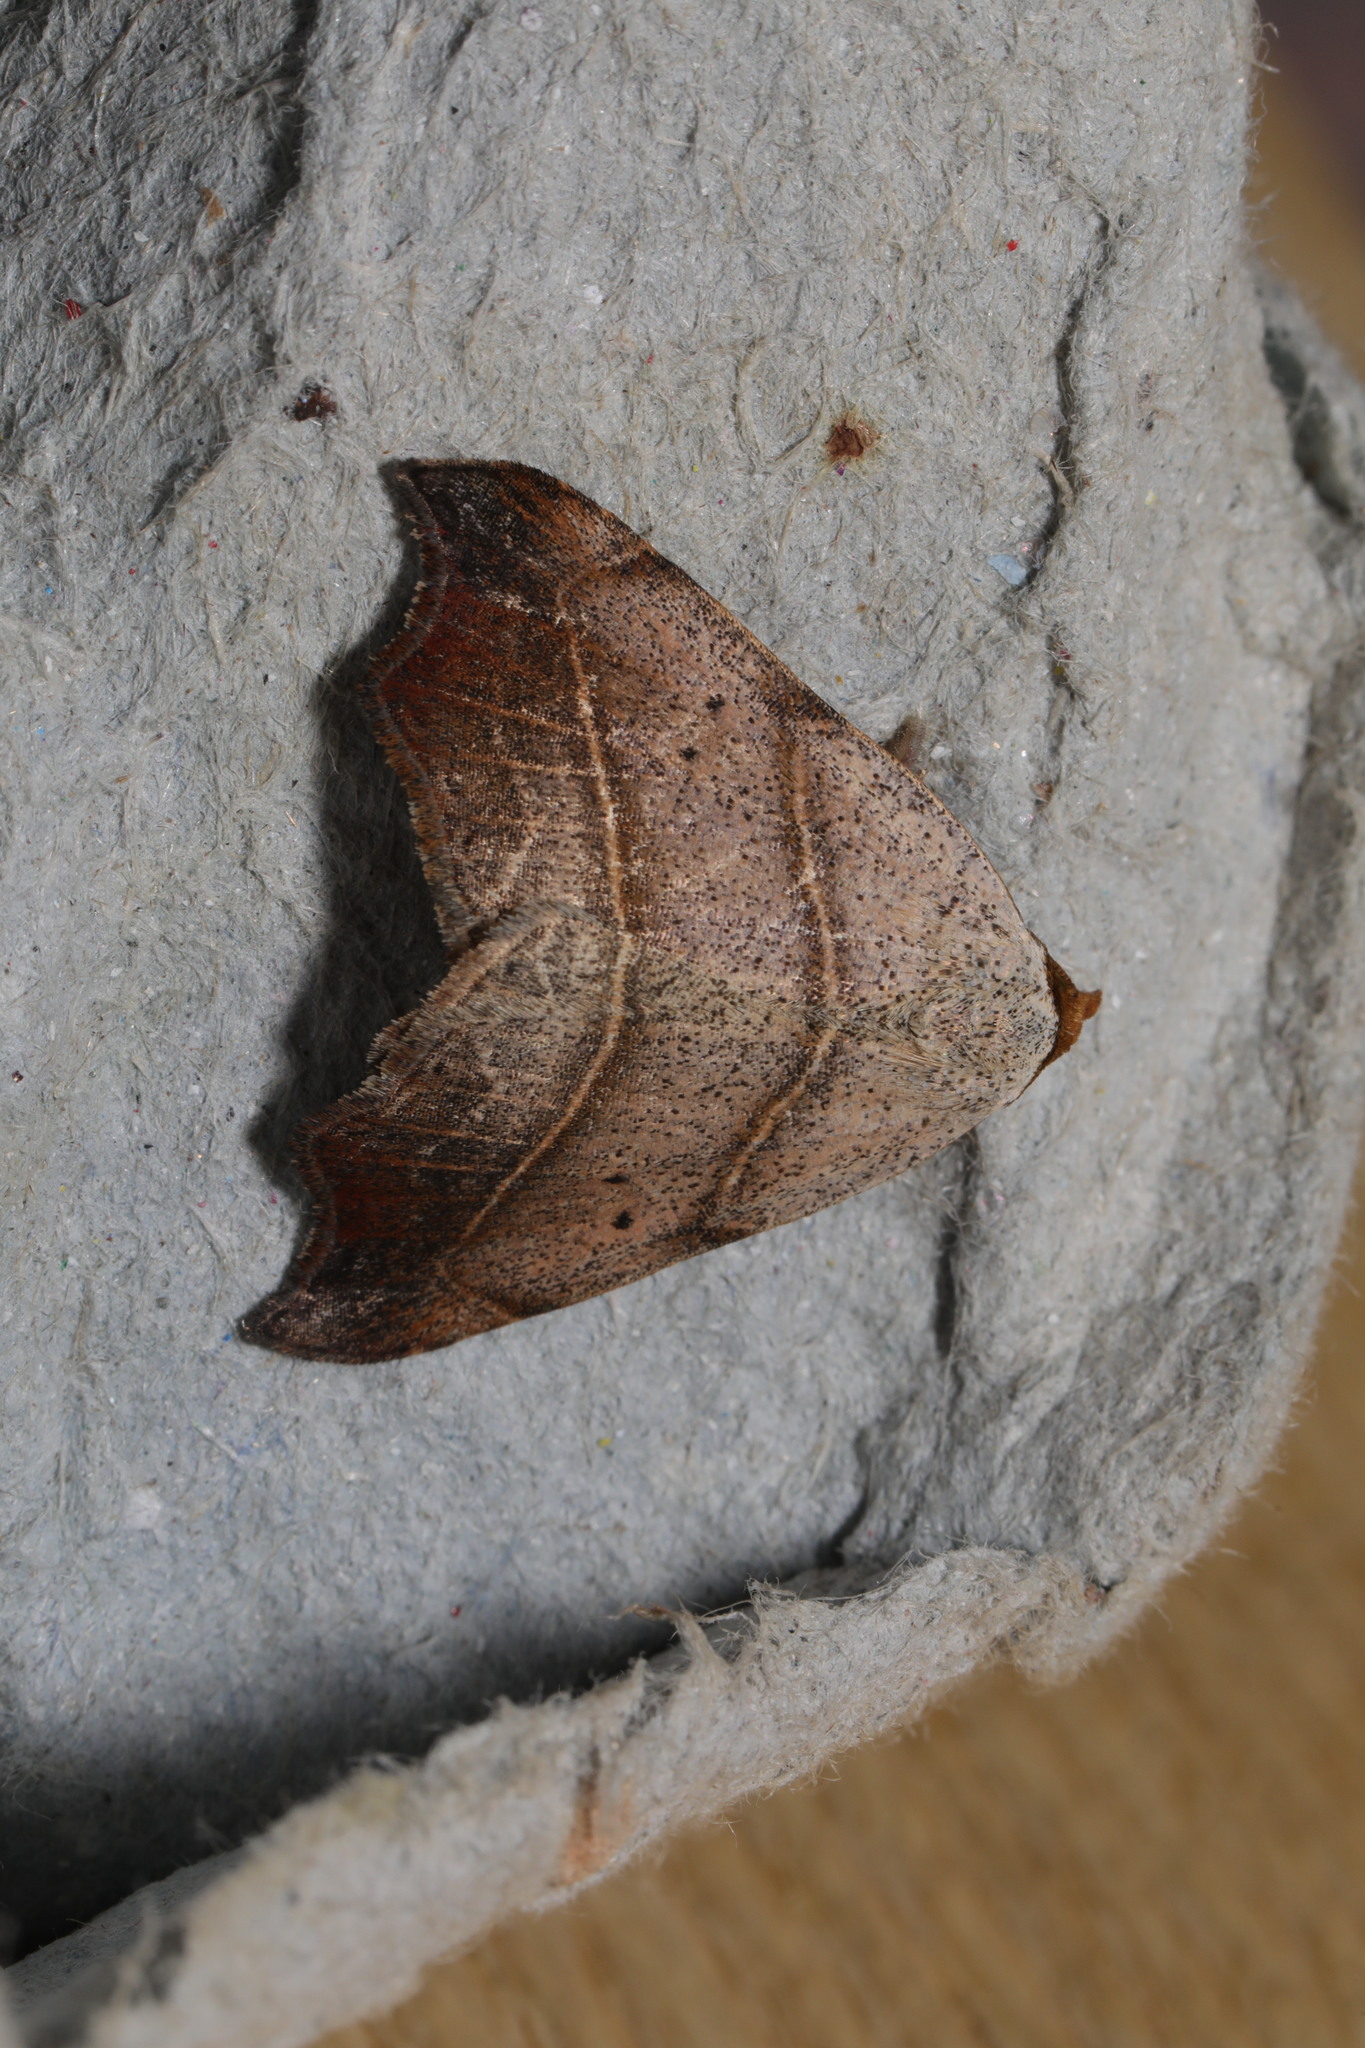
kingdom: Animalia
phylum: Arthropoda
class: Insecta
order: Lepidoptera
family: Erebidae
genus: Laspeyria
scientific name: Laspeyria flexula
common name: Beautiful hook-tip
